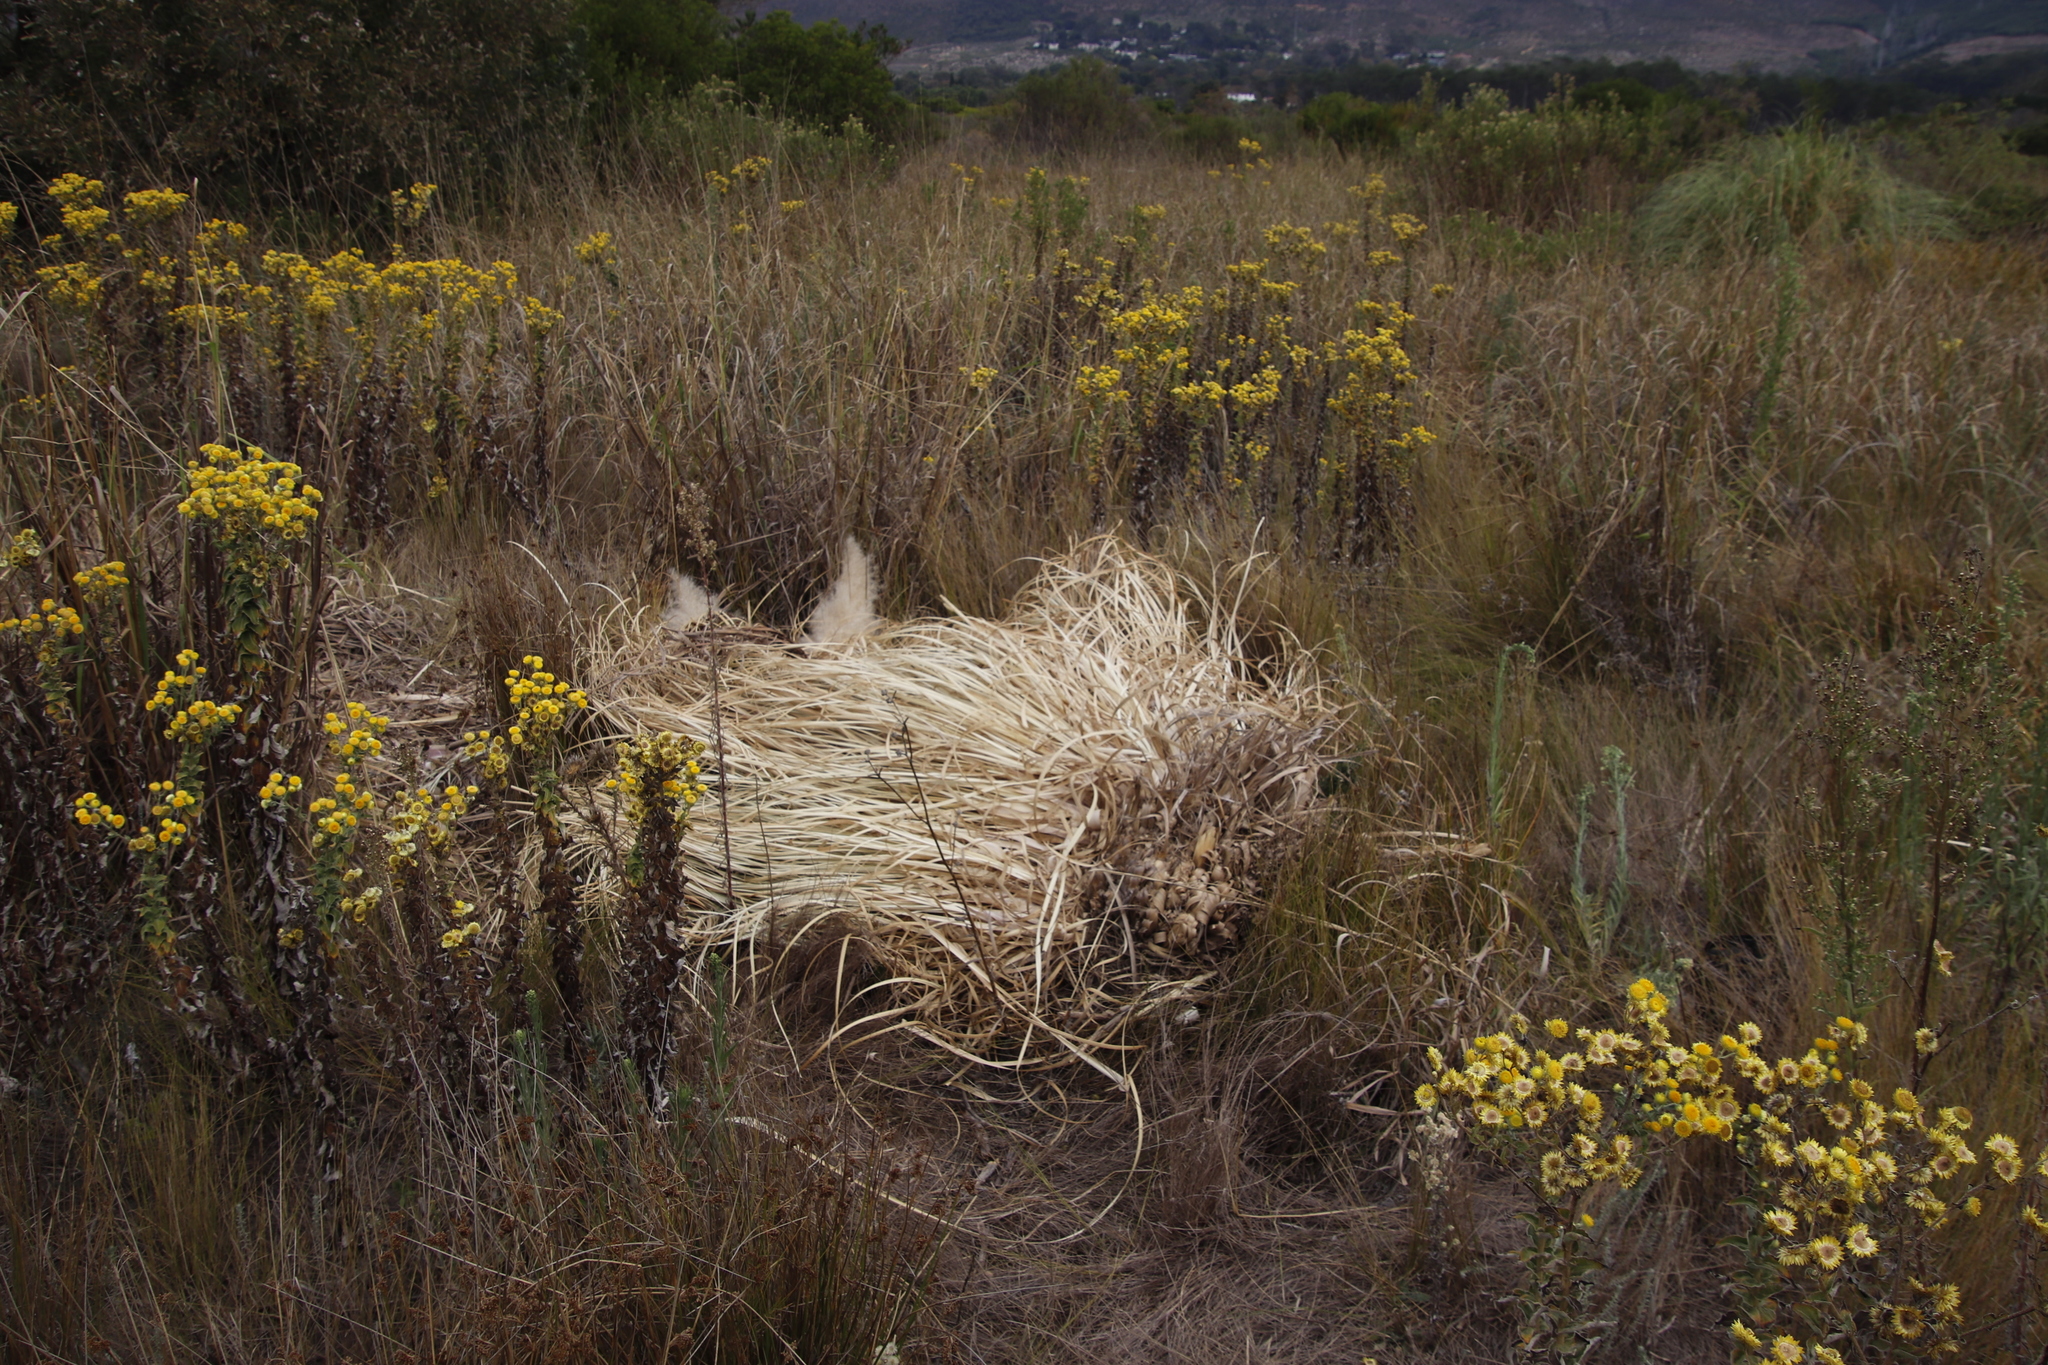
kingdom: Plantae
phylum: Tracheophyta
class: Liliopsida
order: Poales
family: Poaceae
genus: Cortaderia
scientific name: Cortaderia selloana
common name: Uruguayan pampas grass
